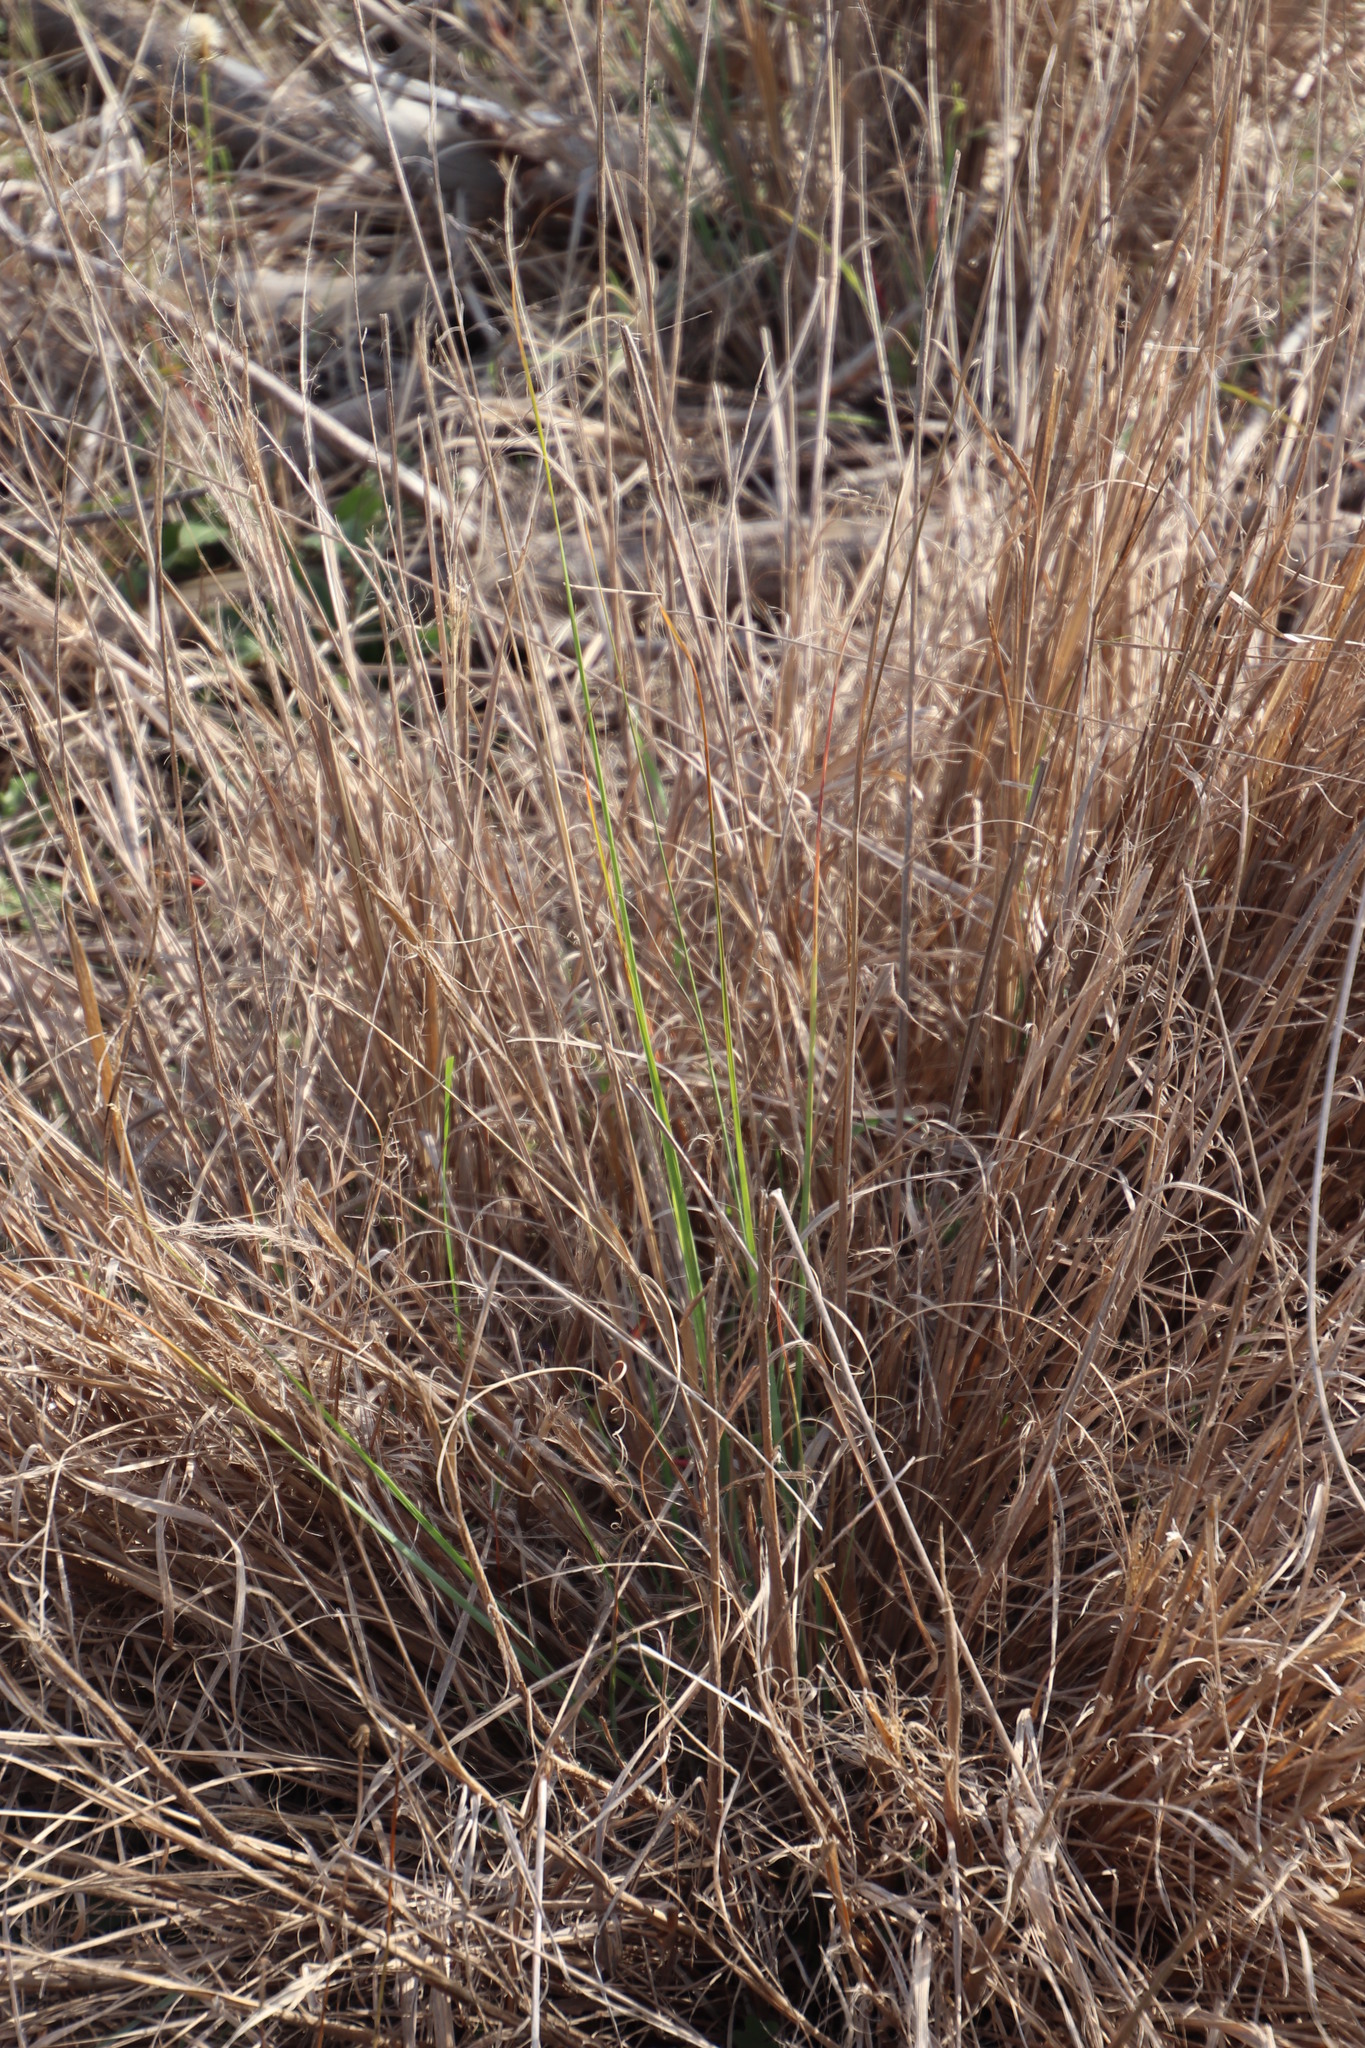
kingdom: Plantae
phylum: Tracheophyta
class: Liliopsida
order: Poales
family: Poaceae
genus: Eragrostis
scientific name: Eragrostis curvula
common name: African love-grass
